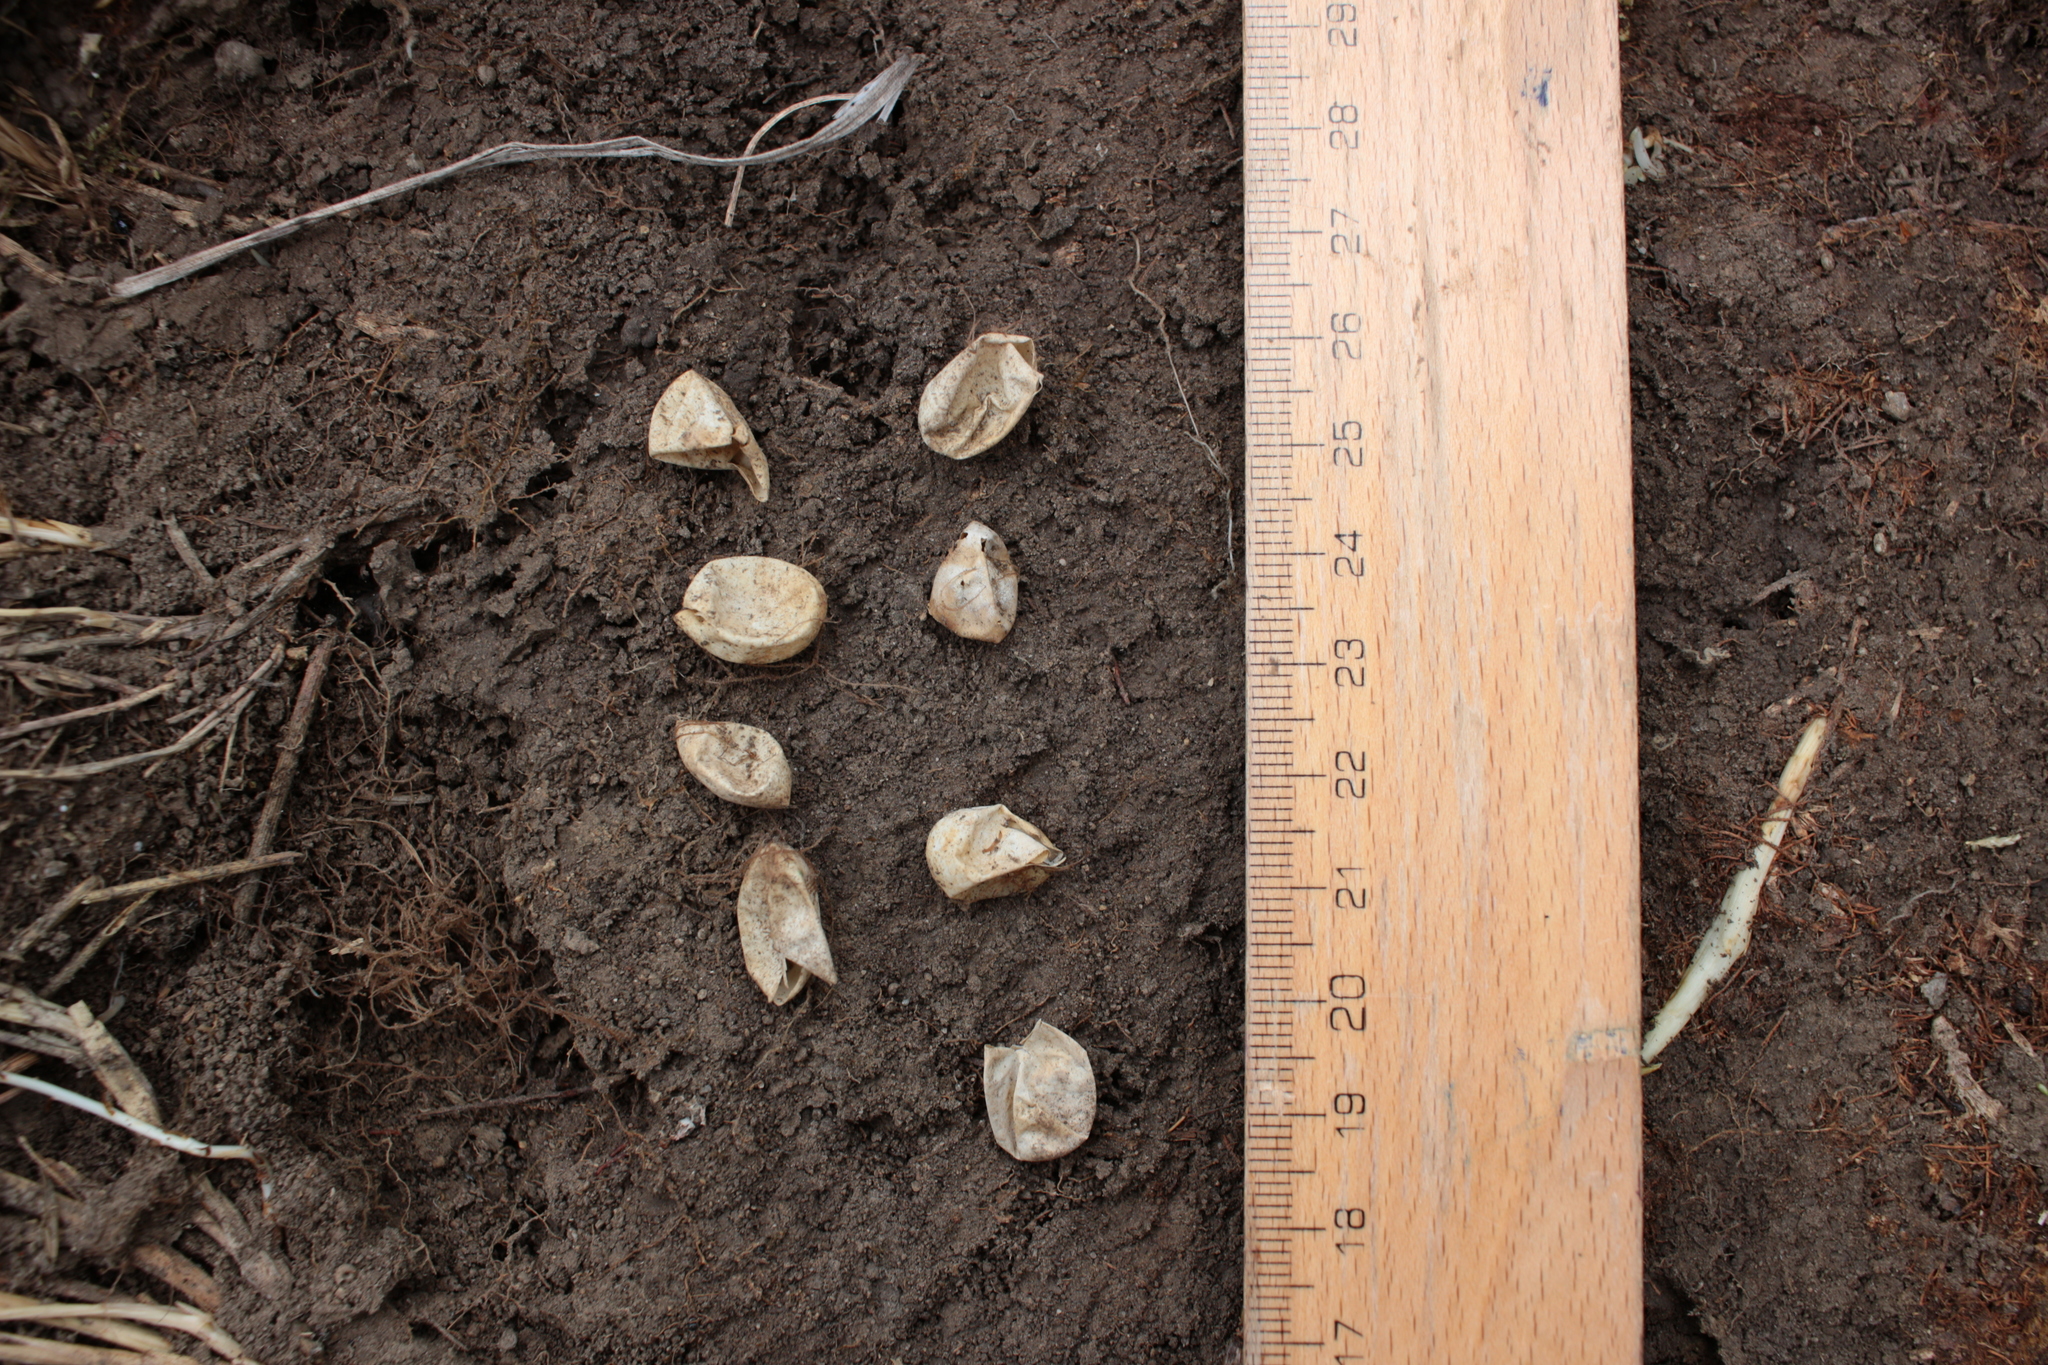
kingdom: Animalia
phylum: Chordata
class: Squamata
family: Lacertidae
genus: Lacerta
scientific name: Lacerta agilis
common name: Sand lizard
